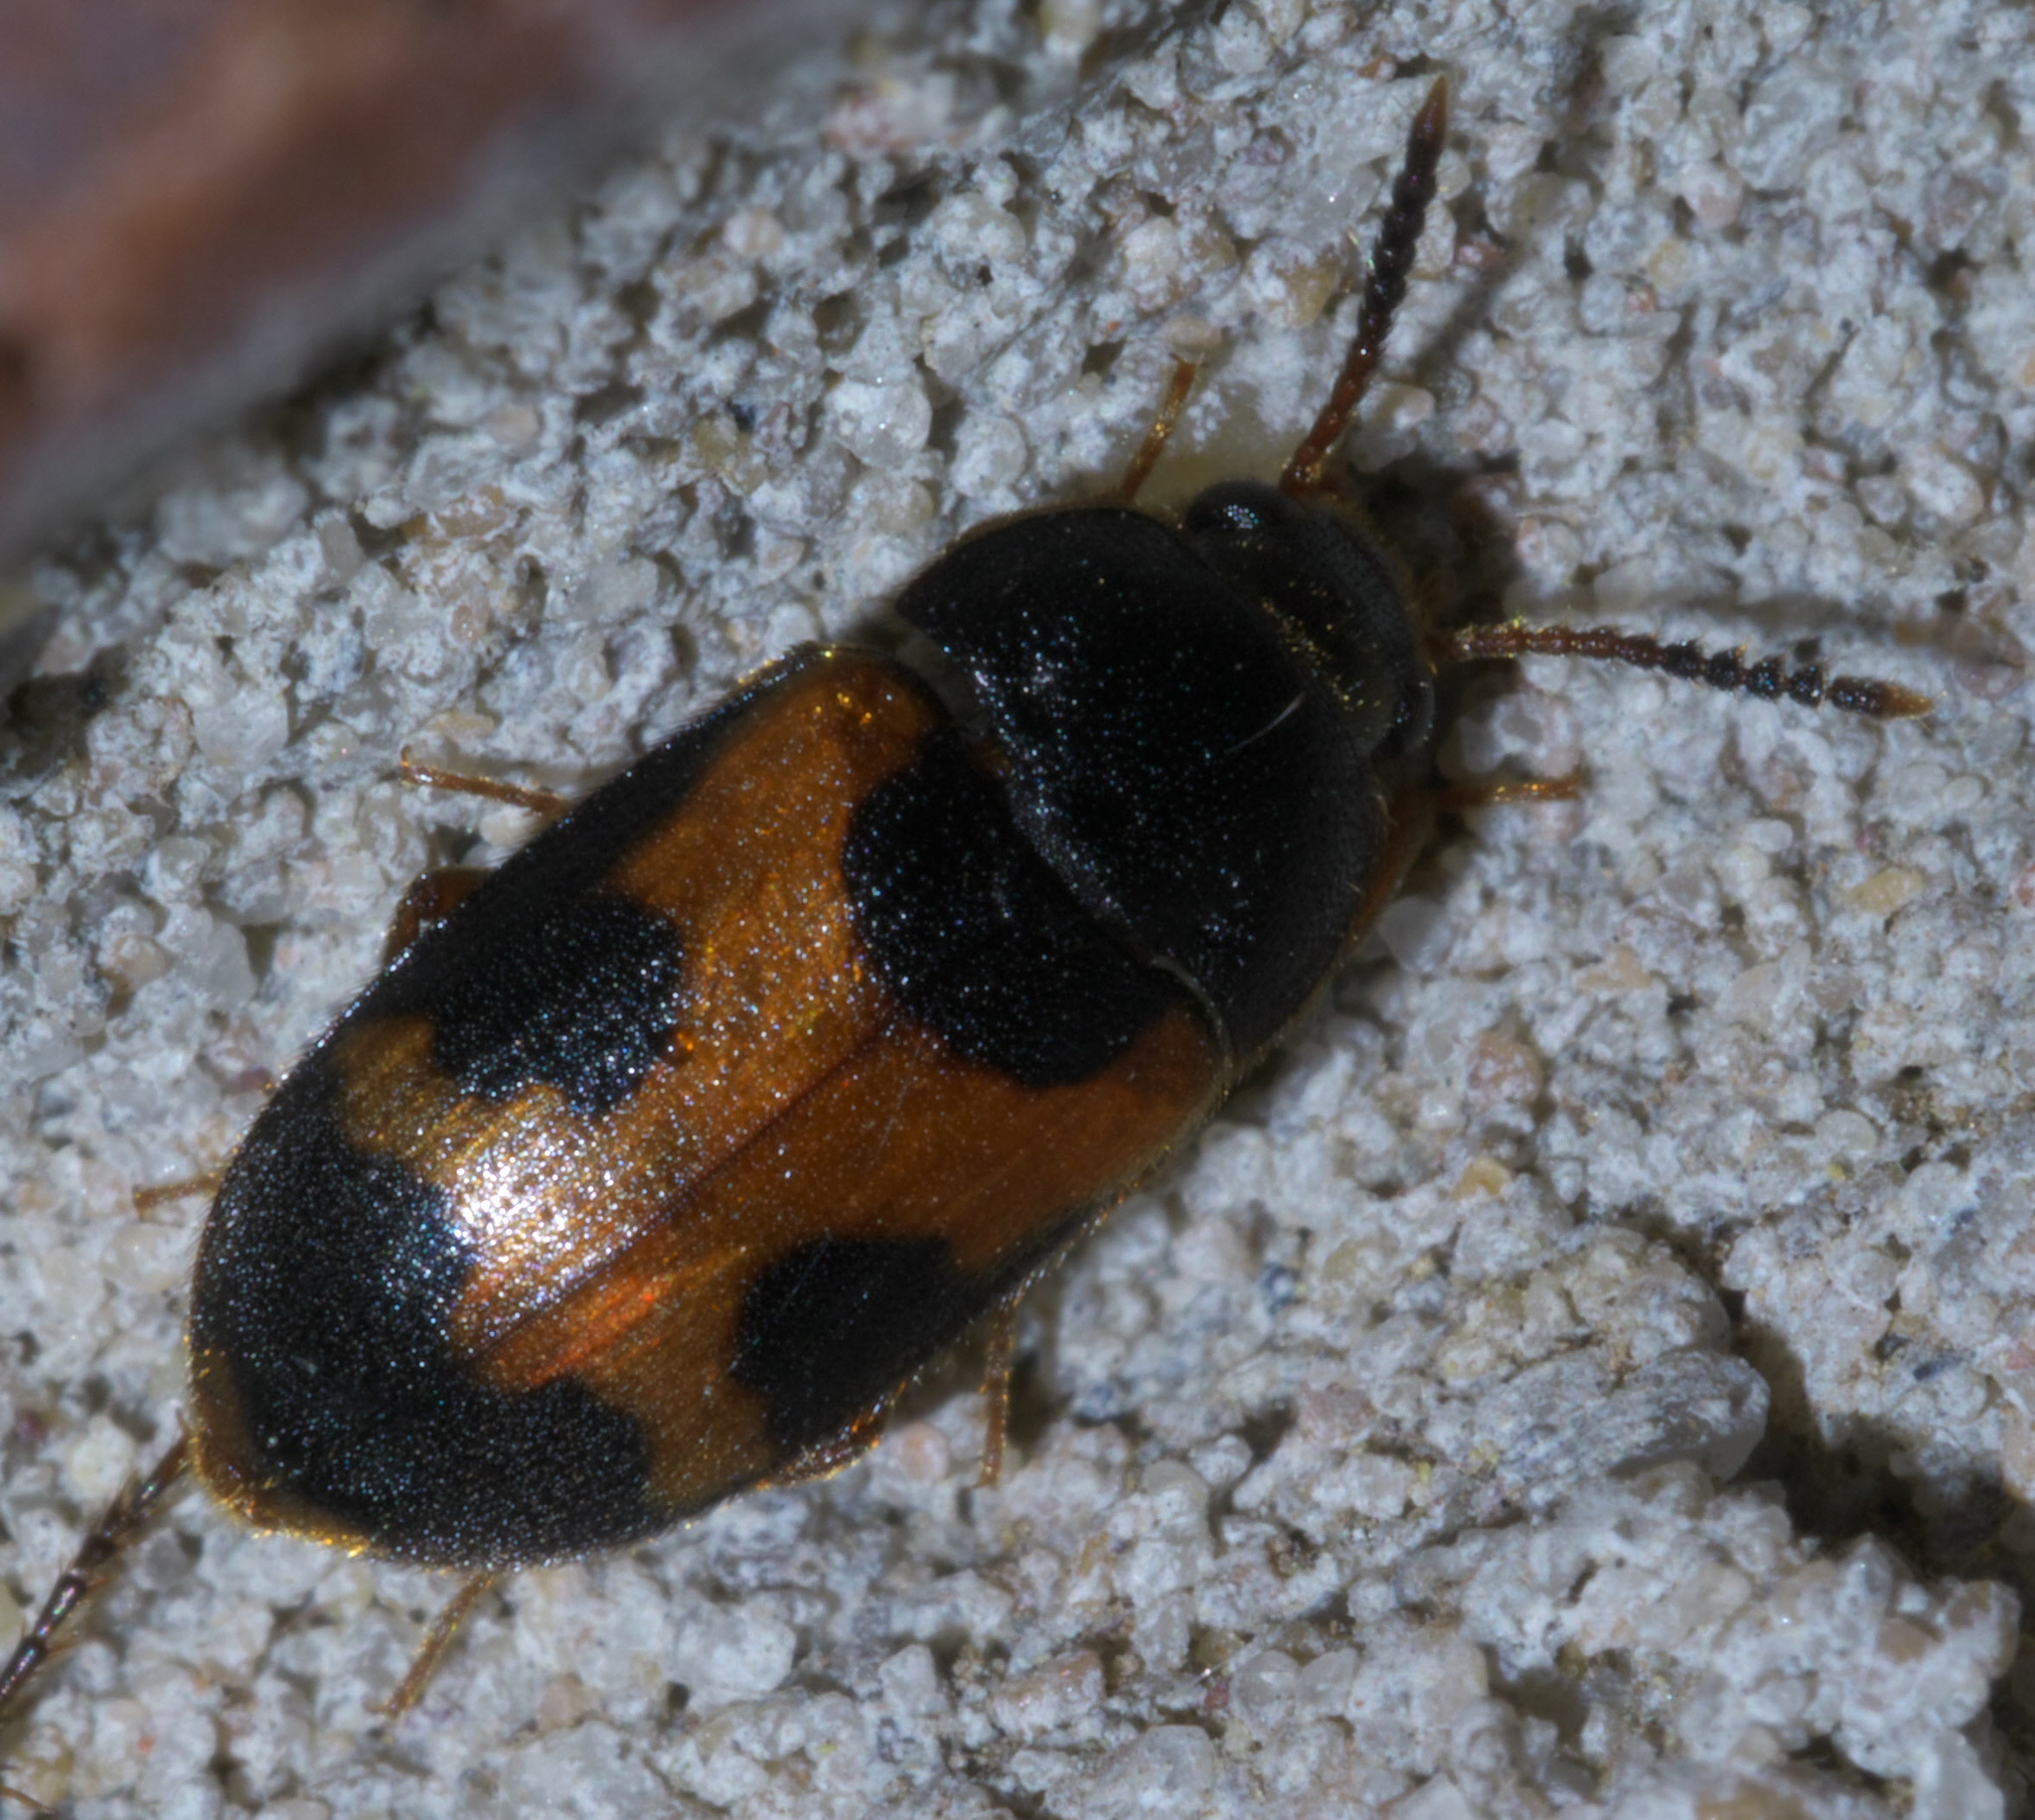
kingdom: Animalia
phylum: Arthropoda
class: Insecta
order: Coleoptera
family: Mycetophagidae
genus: Mycetophagus
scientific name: Mycetophagus punctatus
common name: Hairy fungus beetle
